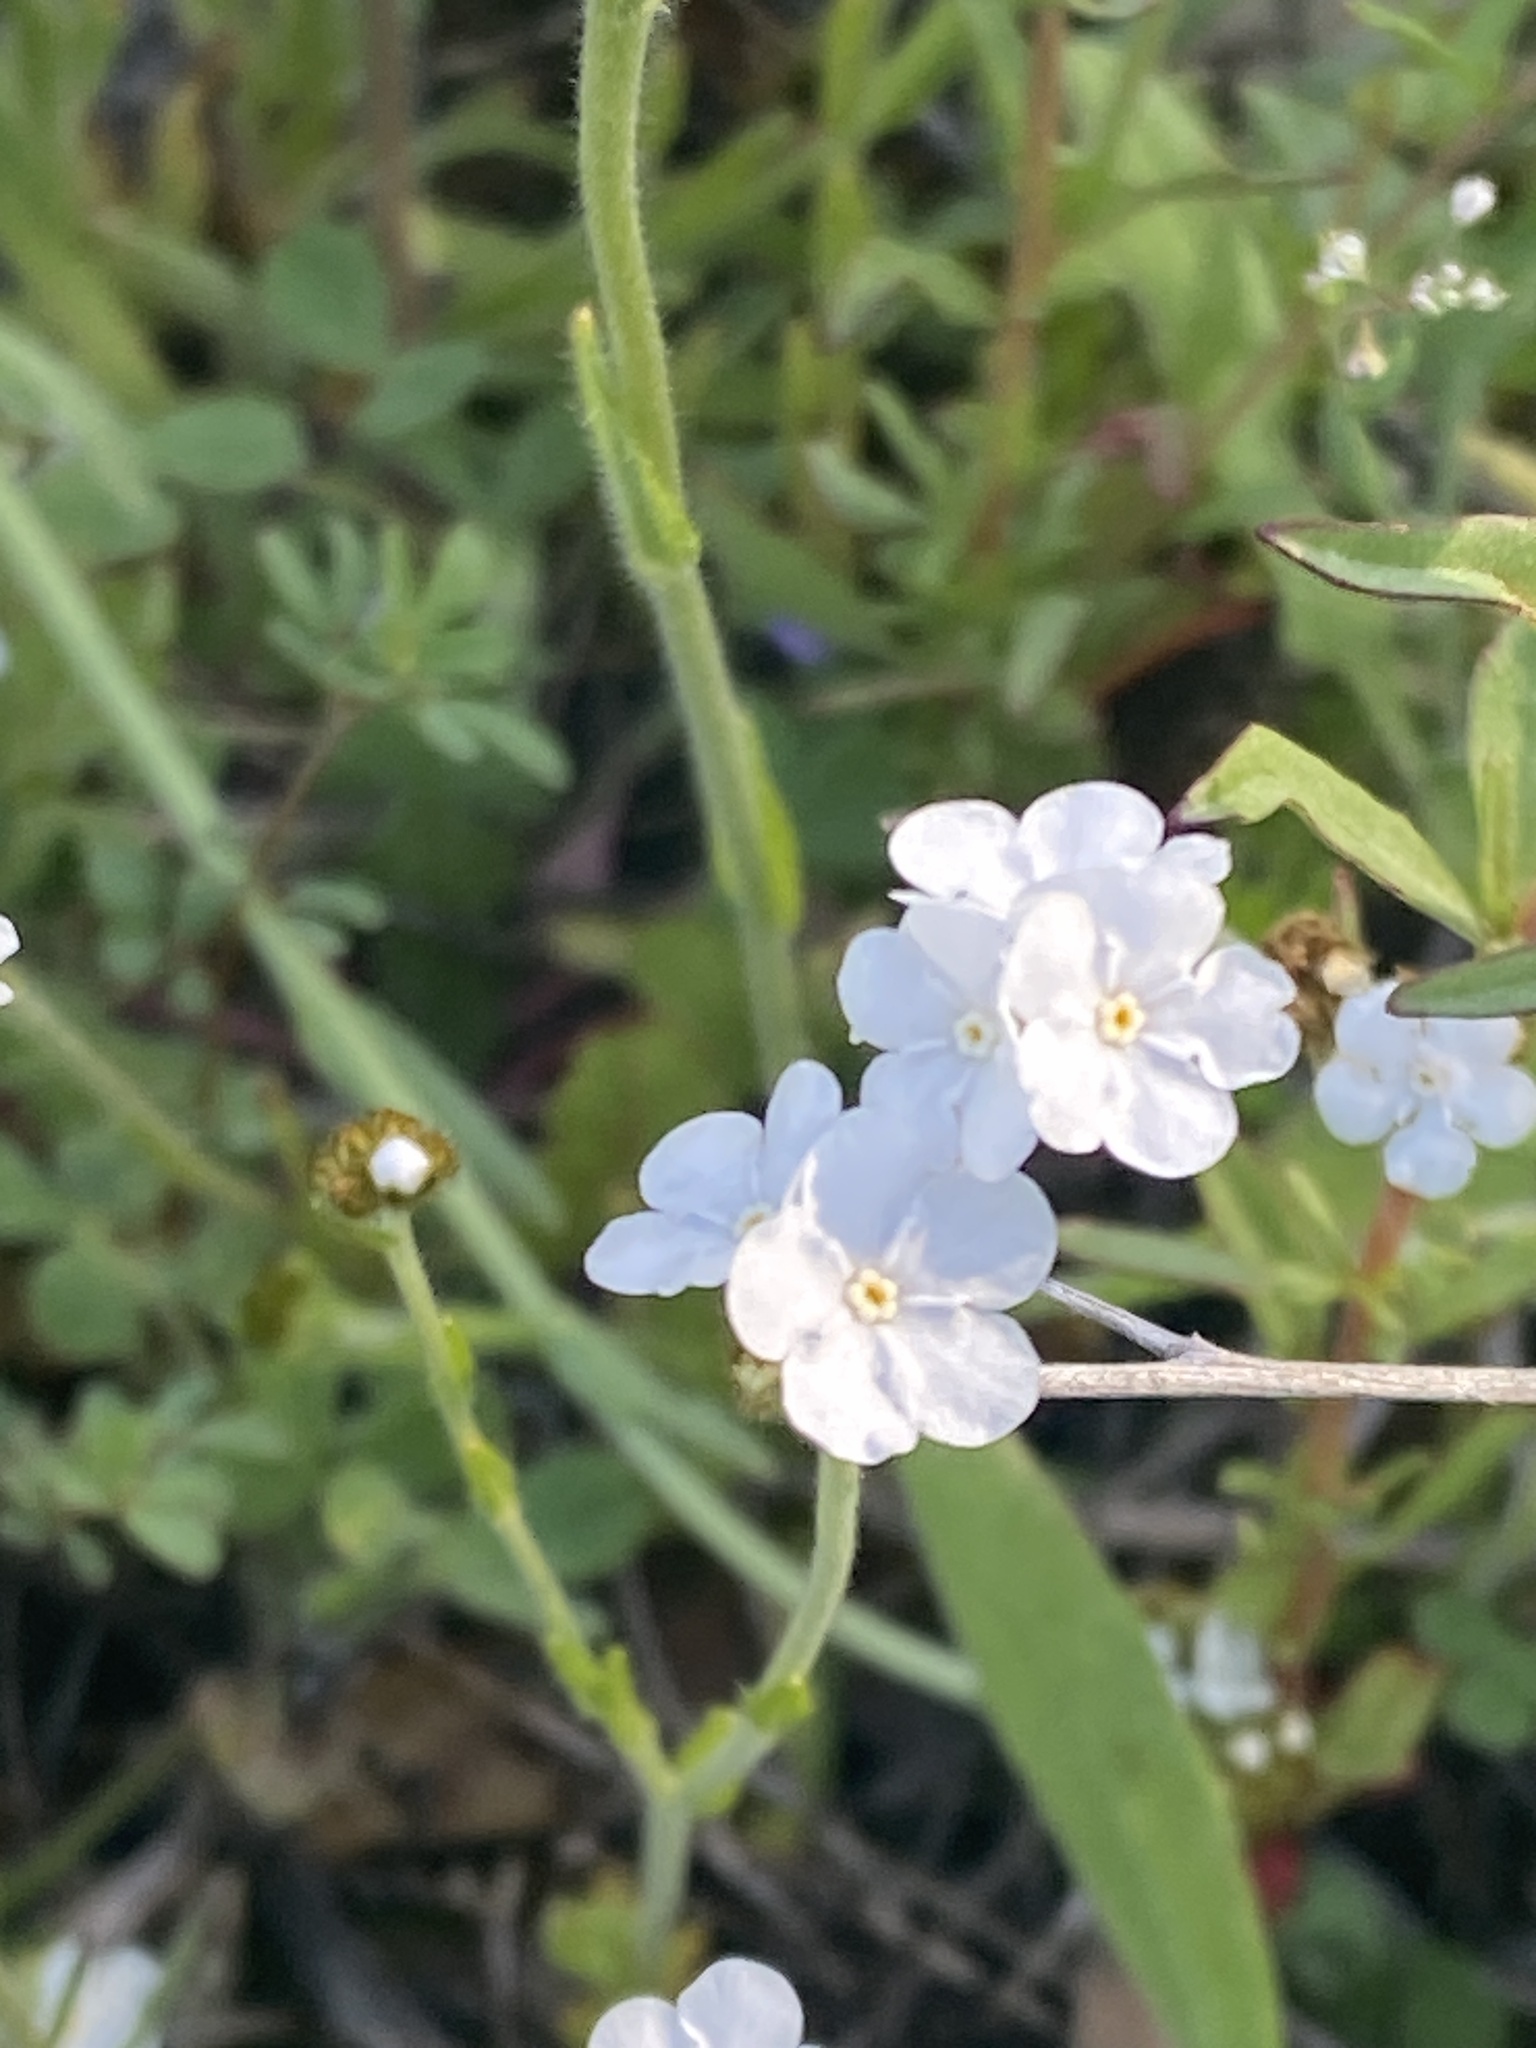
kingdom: Plantae
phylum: Tracheophyta
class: Magnoliopsida
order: Boraginales
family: Boraginaceae
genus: Plagiobothrys
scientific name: Plagiobothrys nothofulvus
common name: Popcorn-flower
